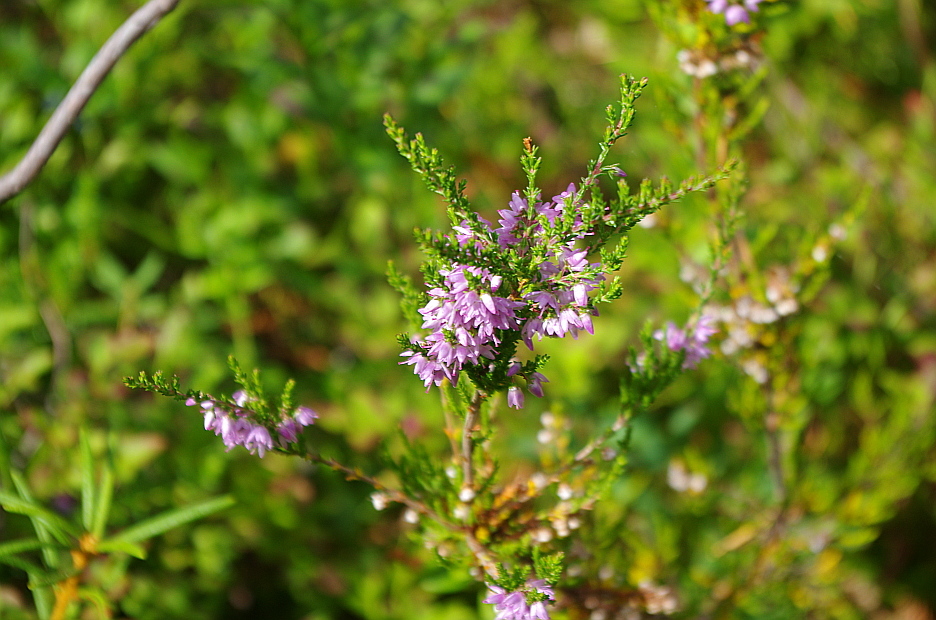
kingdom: Plantae
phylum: Tracheophyta
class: Magnoliopsida
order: Ericales
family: Ericaceae
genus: Calluna
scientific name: Calluna vulgaris
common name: Heather
